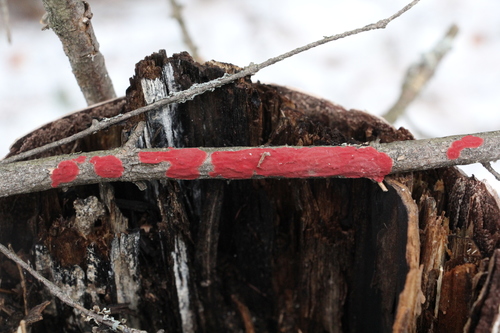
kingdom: Fungi
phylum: Basidiomycota
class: Agaricomycetes
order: Hymenochaetales
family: Hymenochaetaceae
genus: Hymenochaete
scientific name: Hymenochaete cruenta
